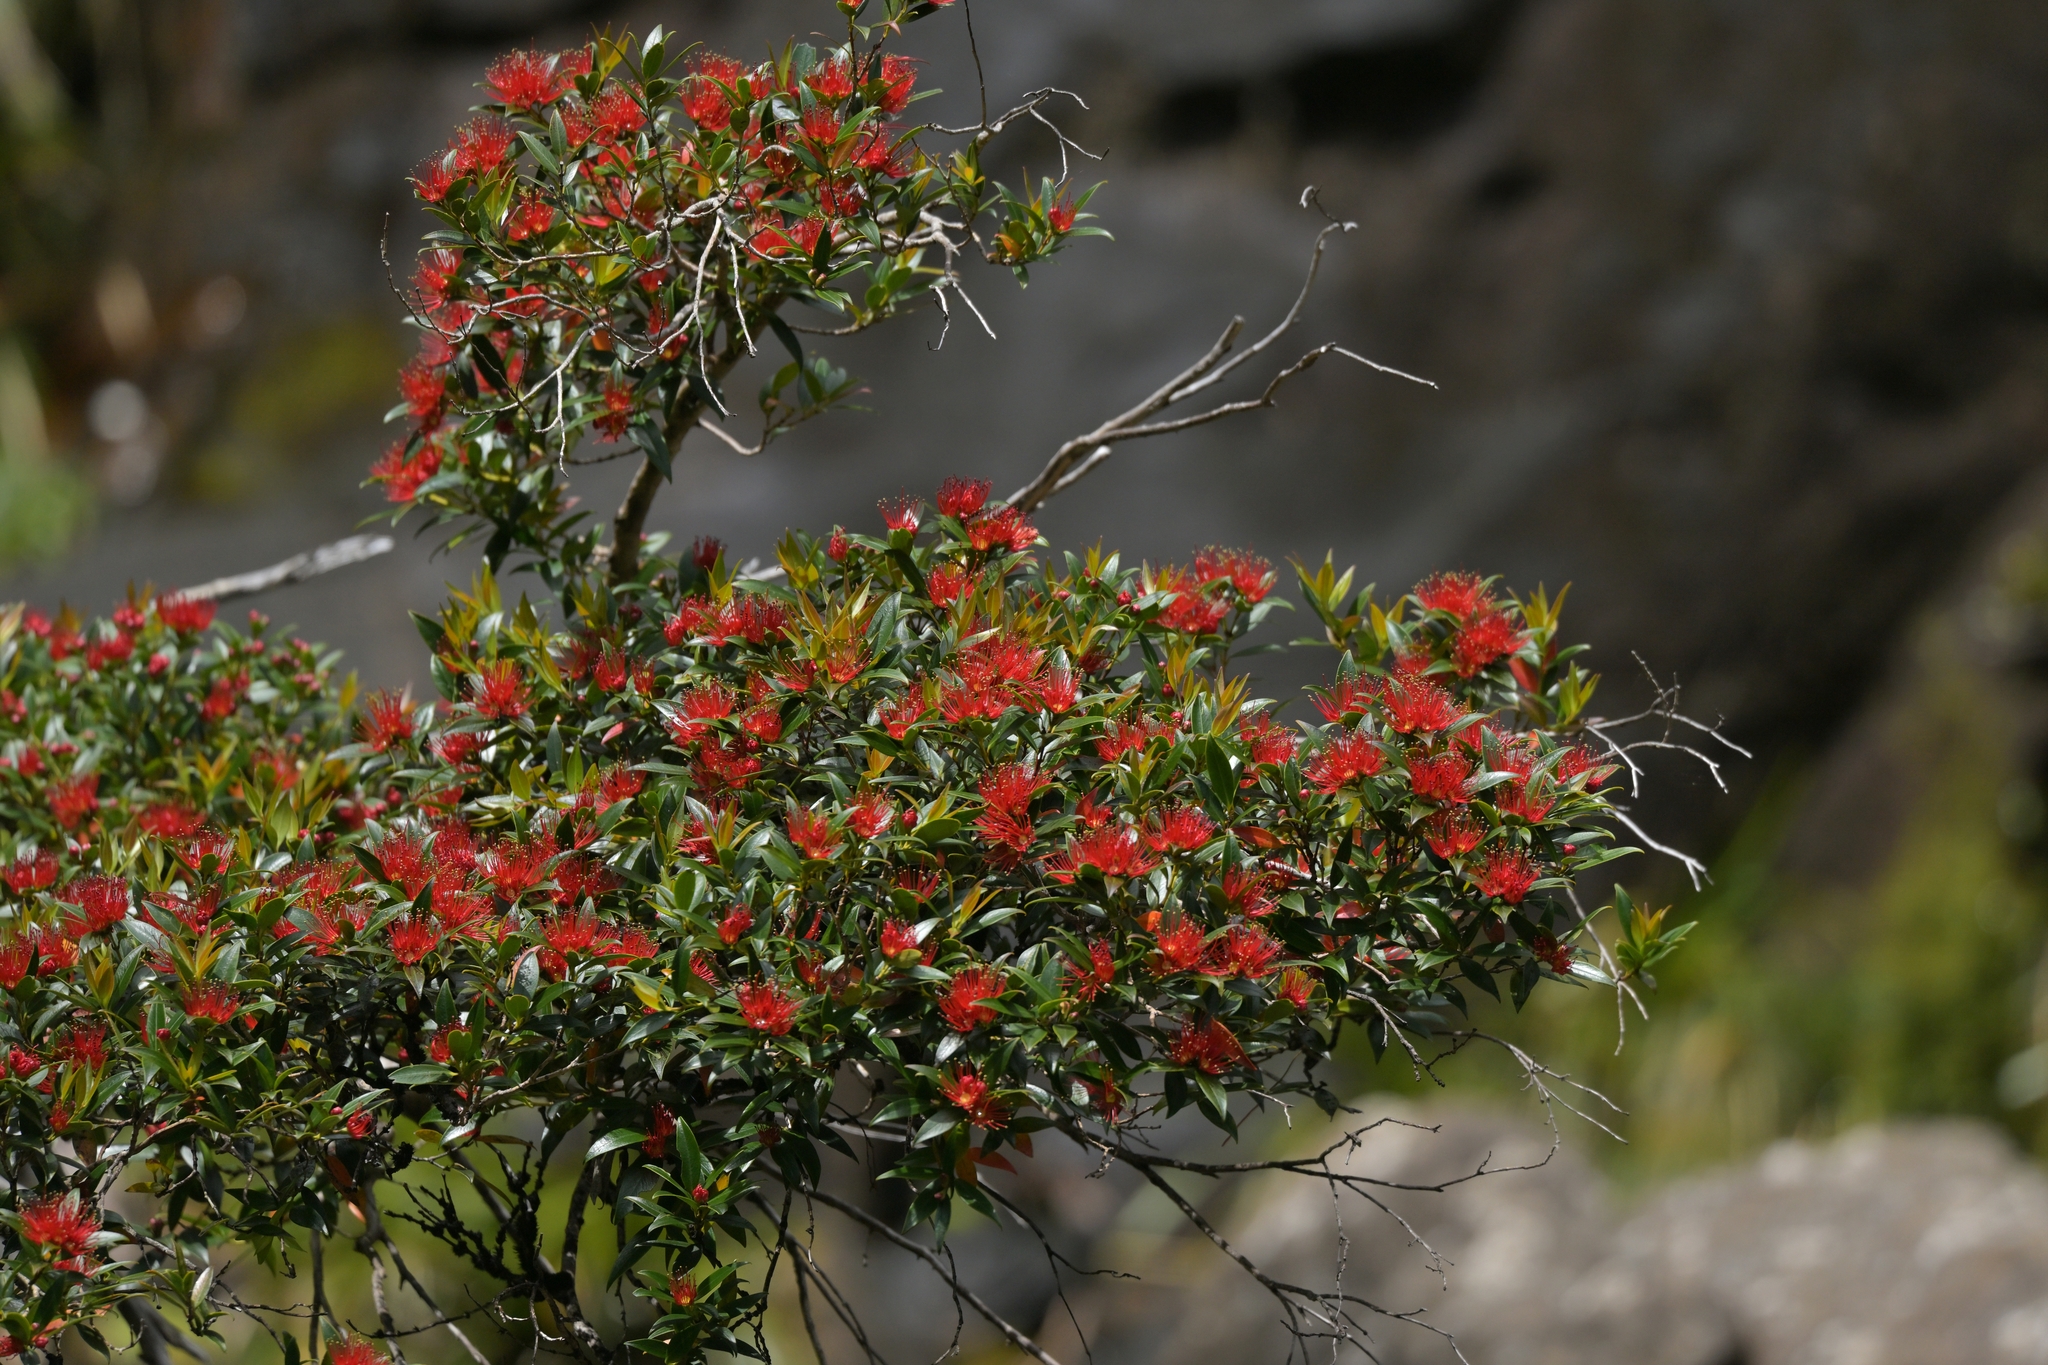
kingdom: Plantae
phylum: Tracheophyta
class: Magnoliopsida
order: Myrtales
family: Myrtaceae
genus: Metrosideros
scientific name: Metrosideros umbellata
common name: Southern rata
